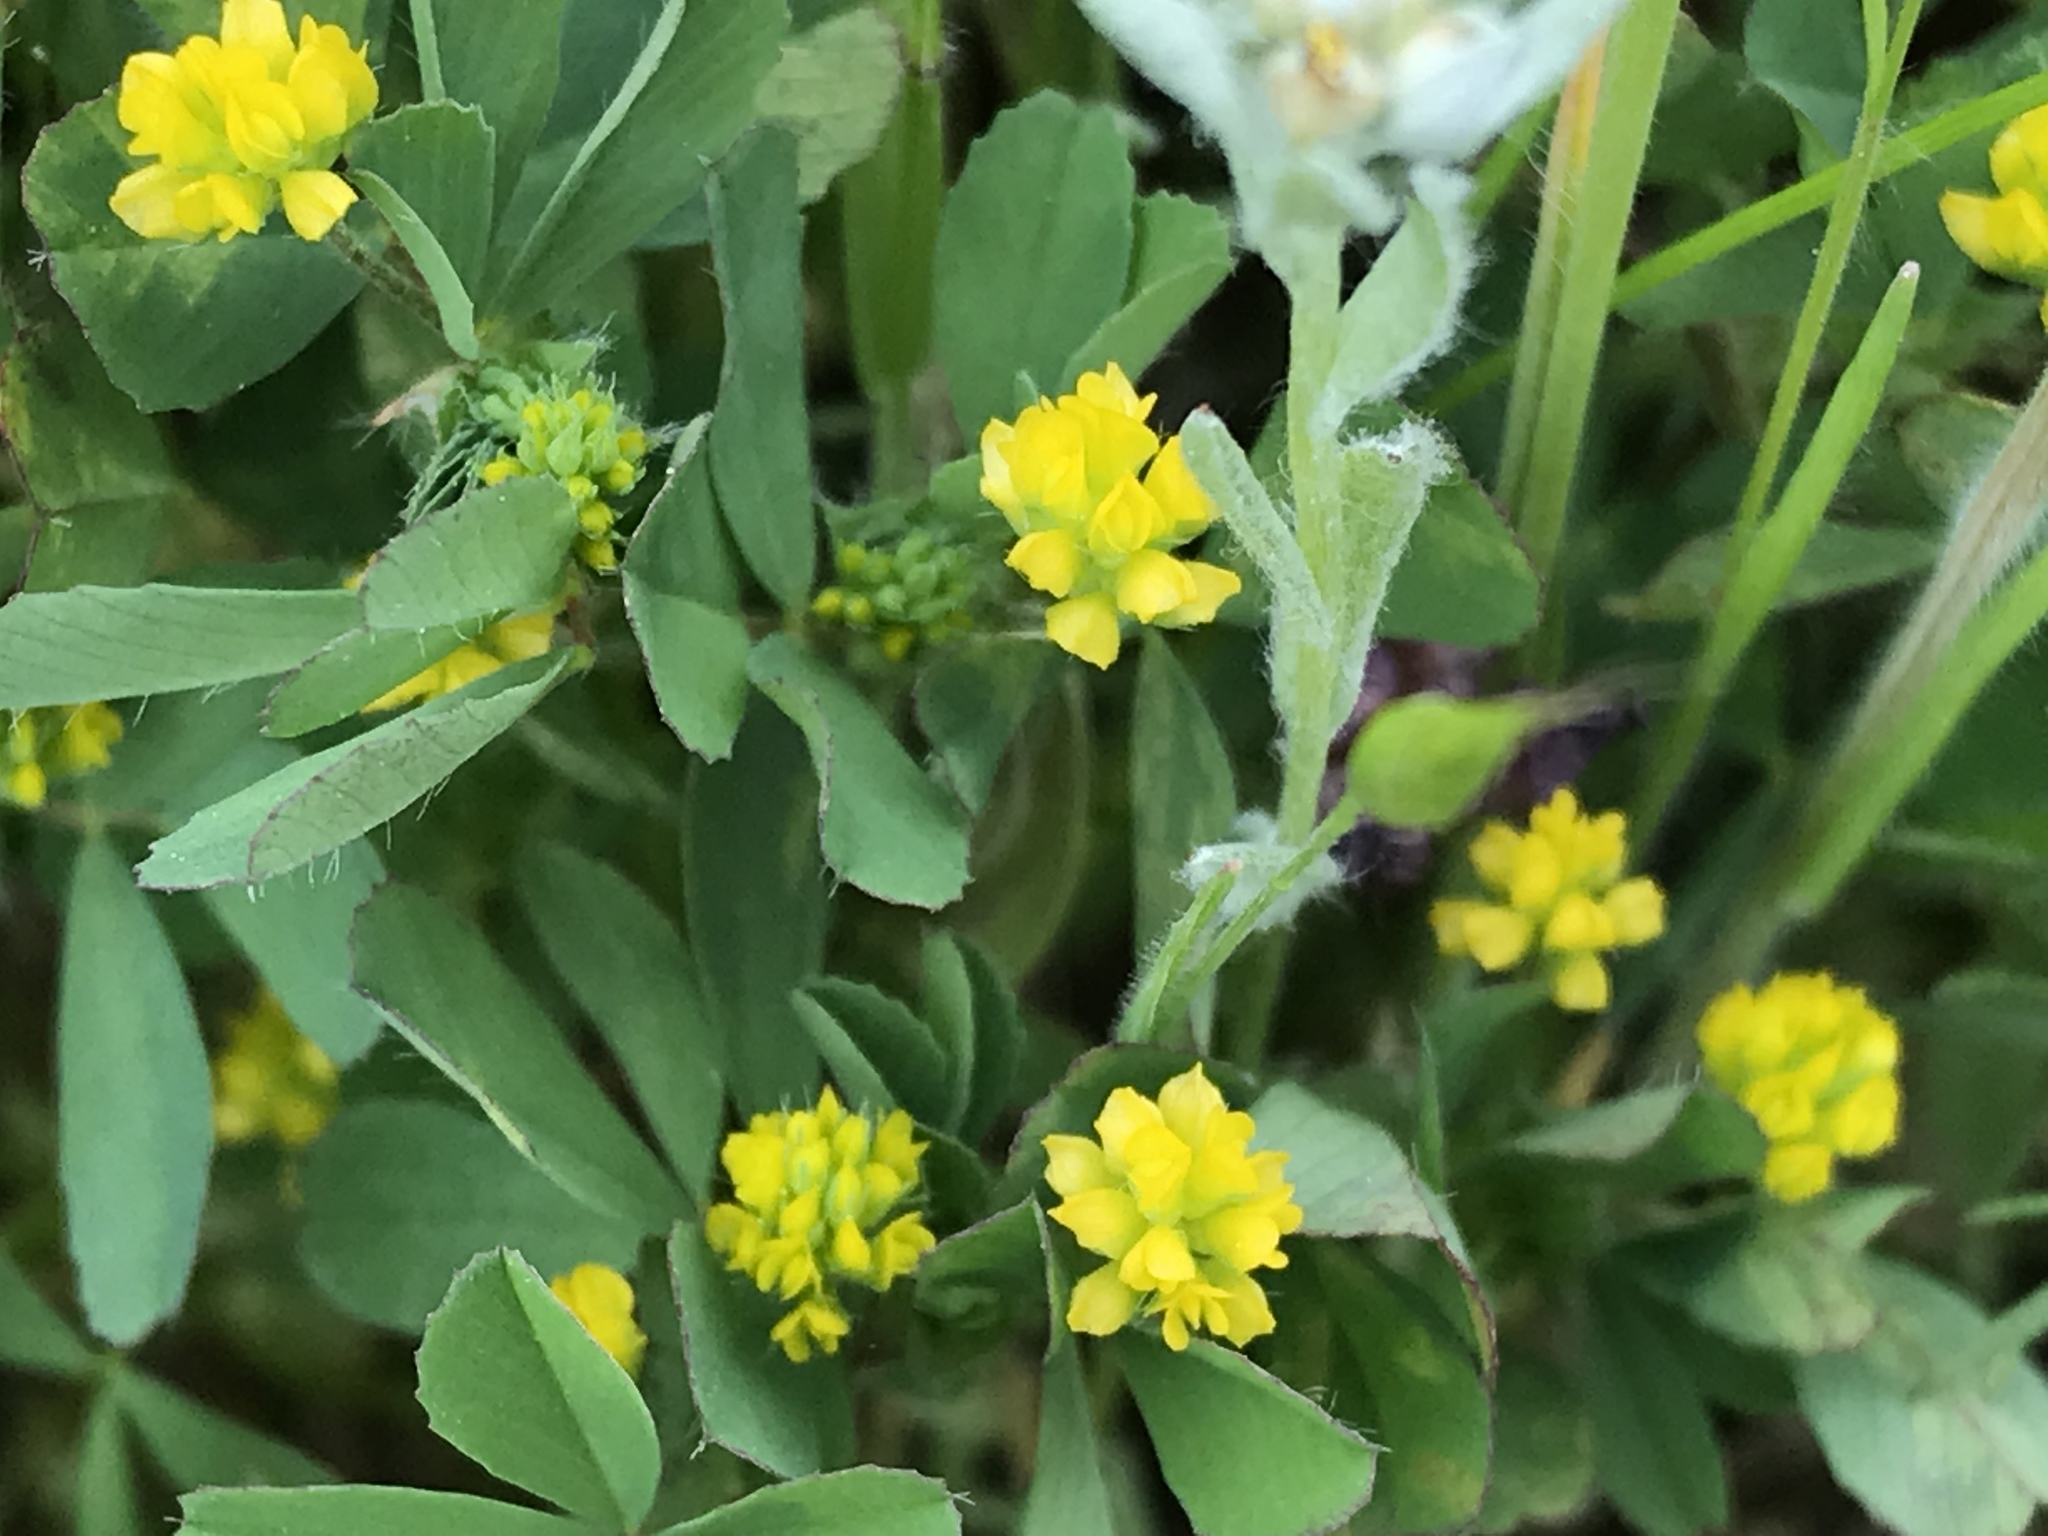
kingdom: Plantae
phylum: Tracheophyta
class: Magnoliopsida
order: Fabales
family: Fabaceae
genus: Trifolium
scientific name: Trifolium dubium
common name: Suckling clover
